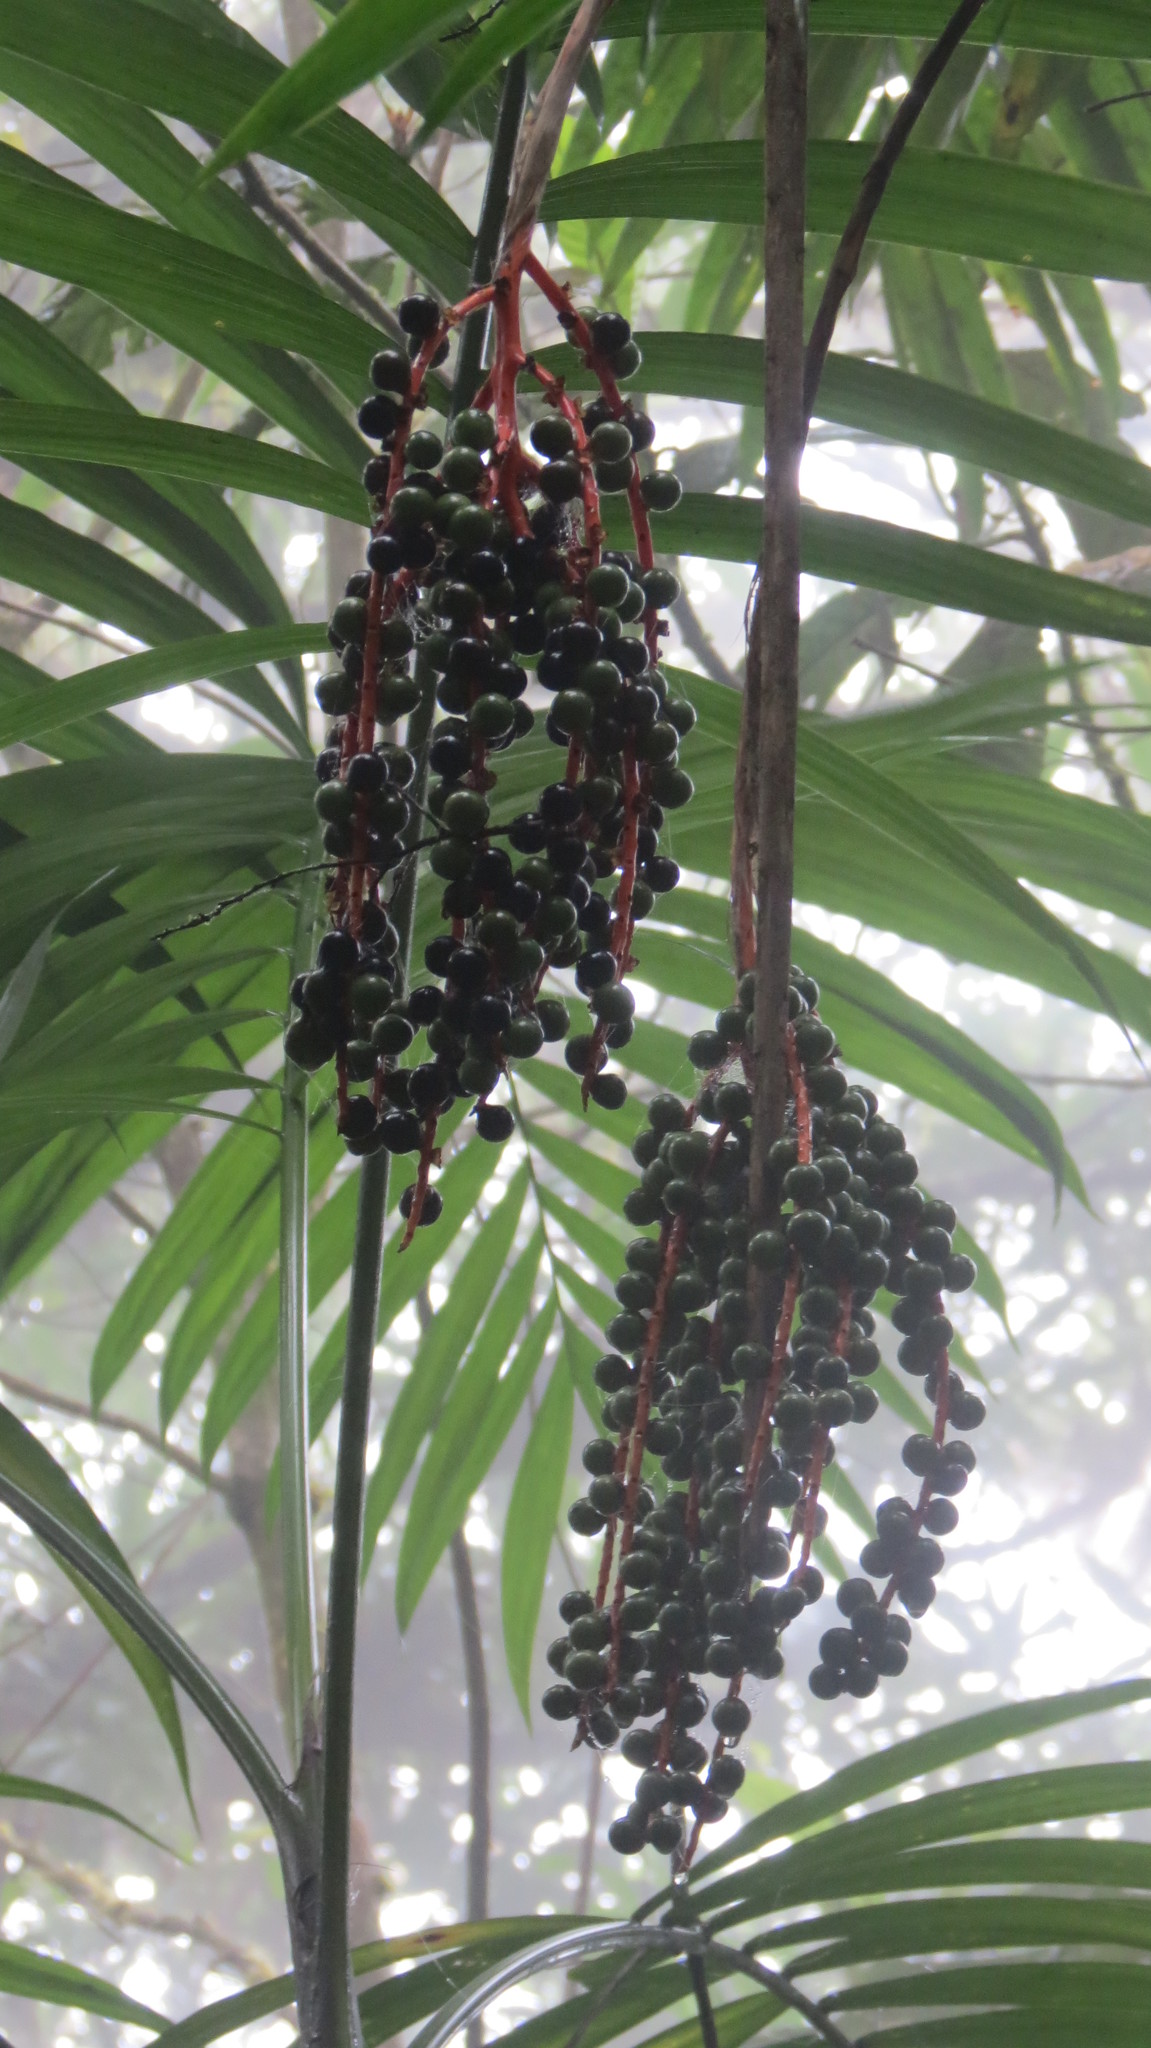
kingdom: Plantae
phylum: Tracheophyta
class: Liliopsida
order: Arecales
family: Arecaceae
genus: Chamaedorea
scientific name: Chamaedorea costaricana
